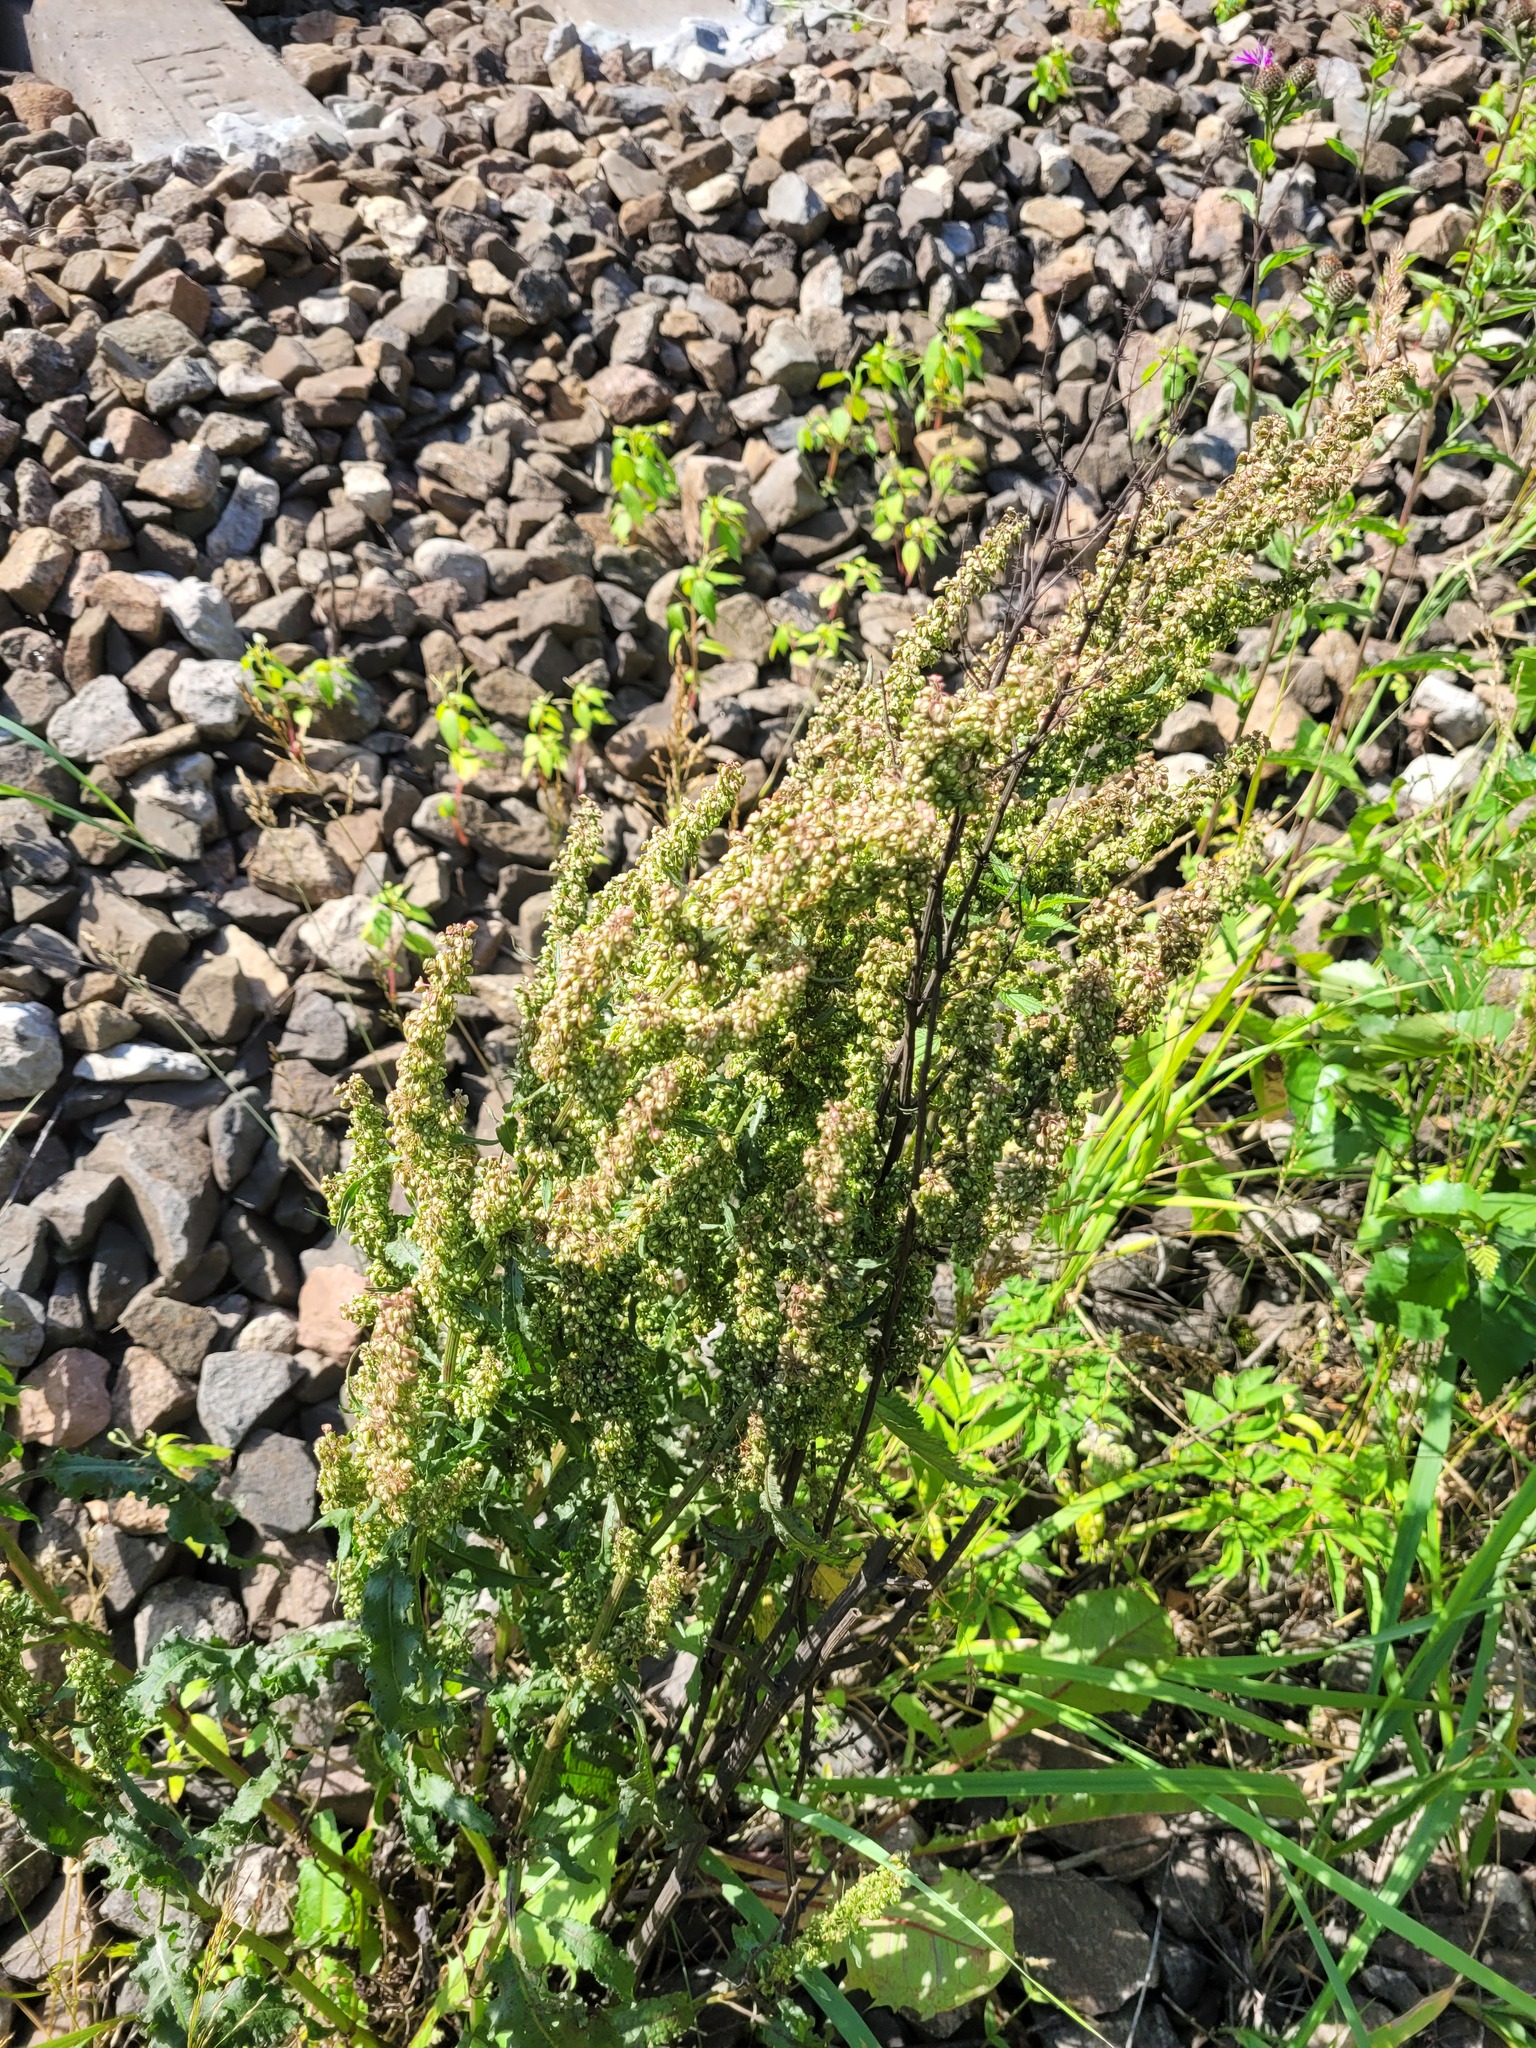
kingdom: Plantae
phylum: Tracheophyta
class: Magnoliopsida
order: Caryophyllales
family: Polygonaceae
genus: Rumex
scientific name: Rumex crispus
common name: Curled dock
